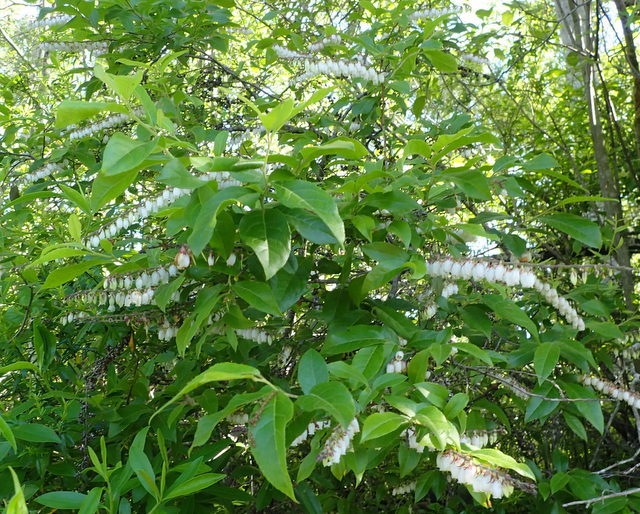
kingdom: Plantae
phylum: Tracheophyta
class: Magnoliopsida
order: Ericales
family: Ericaceae
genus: Eubotrys
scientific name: Eubotrys racemosa
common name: Fetterbush
